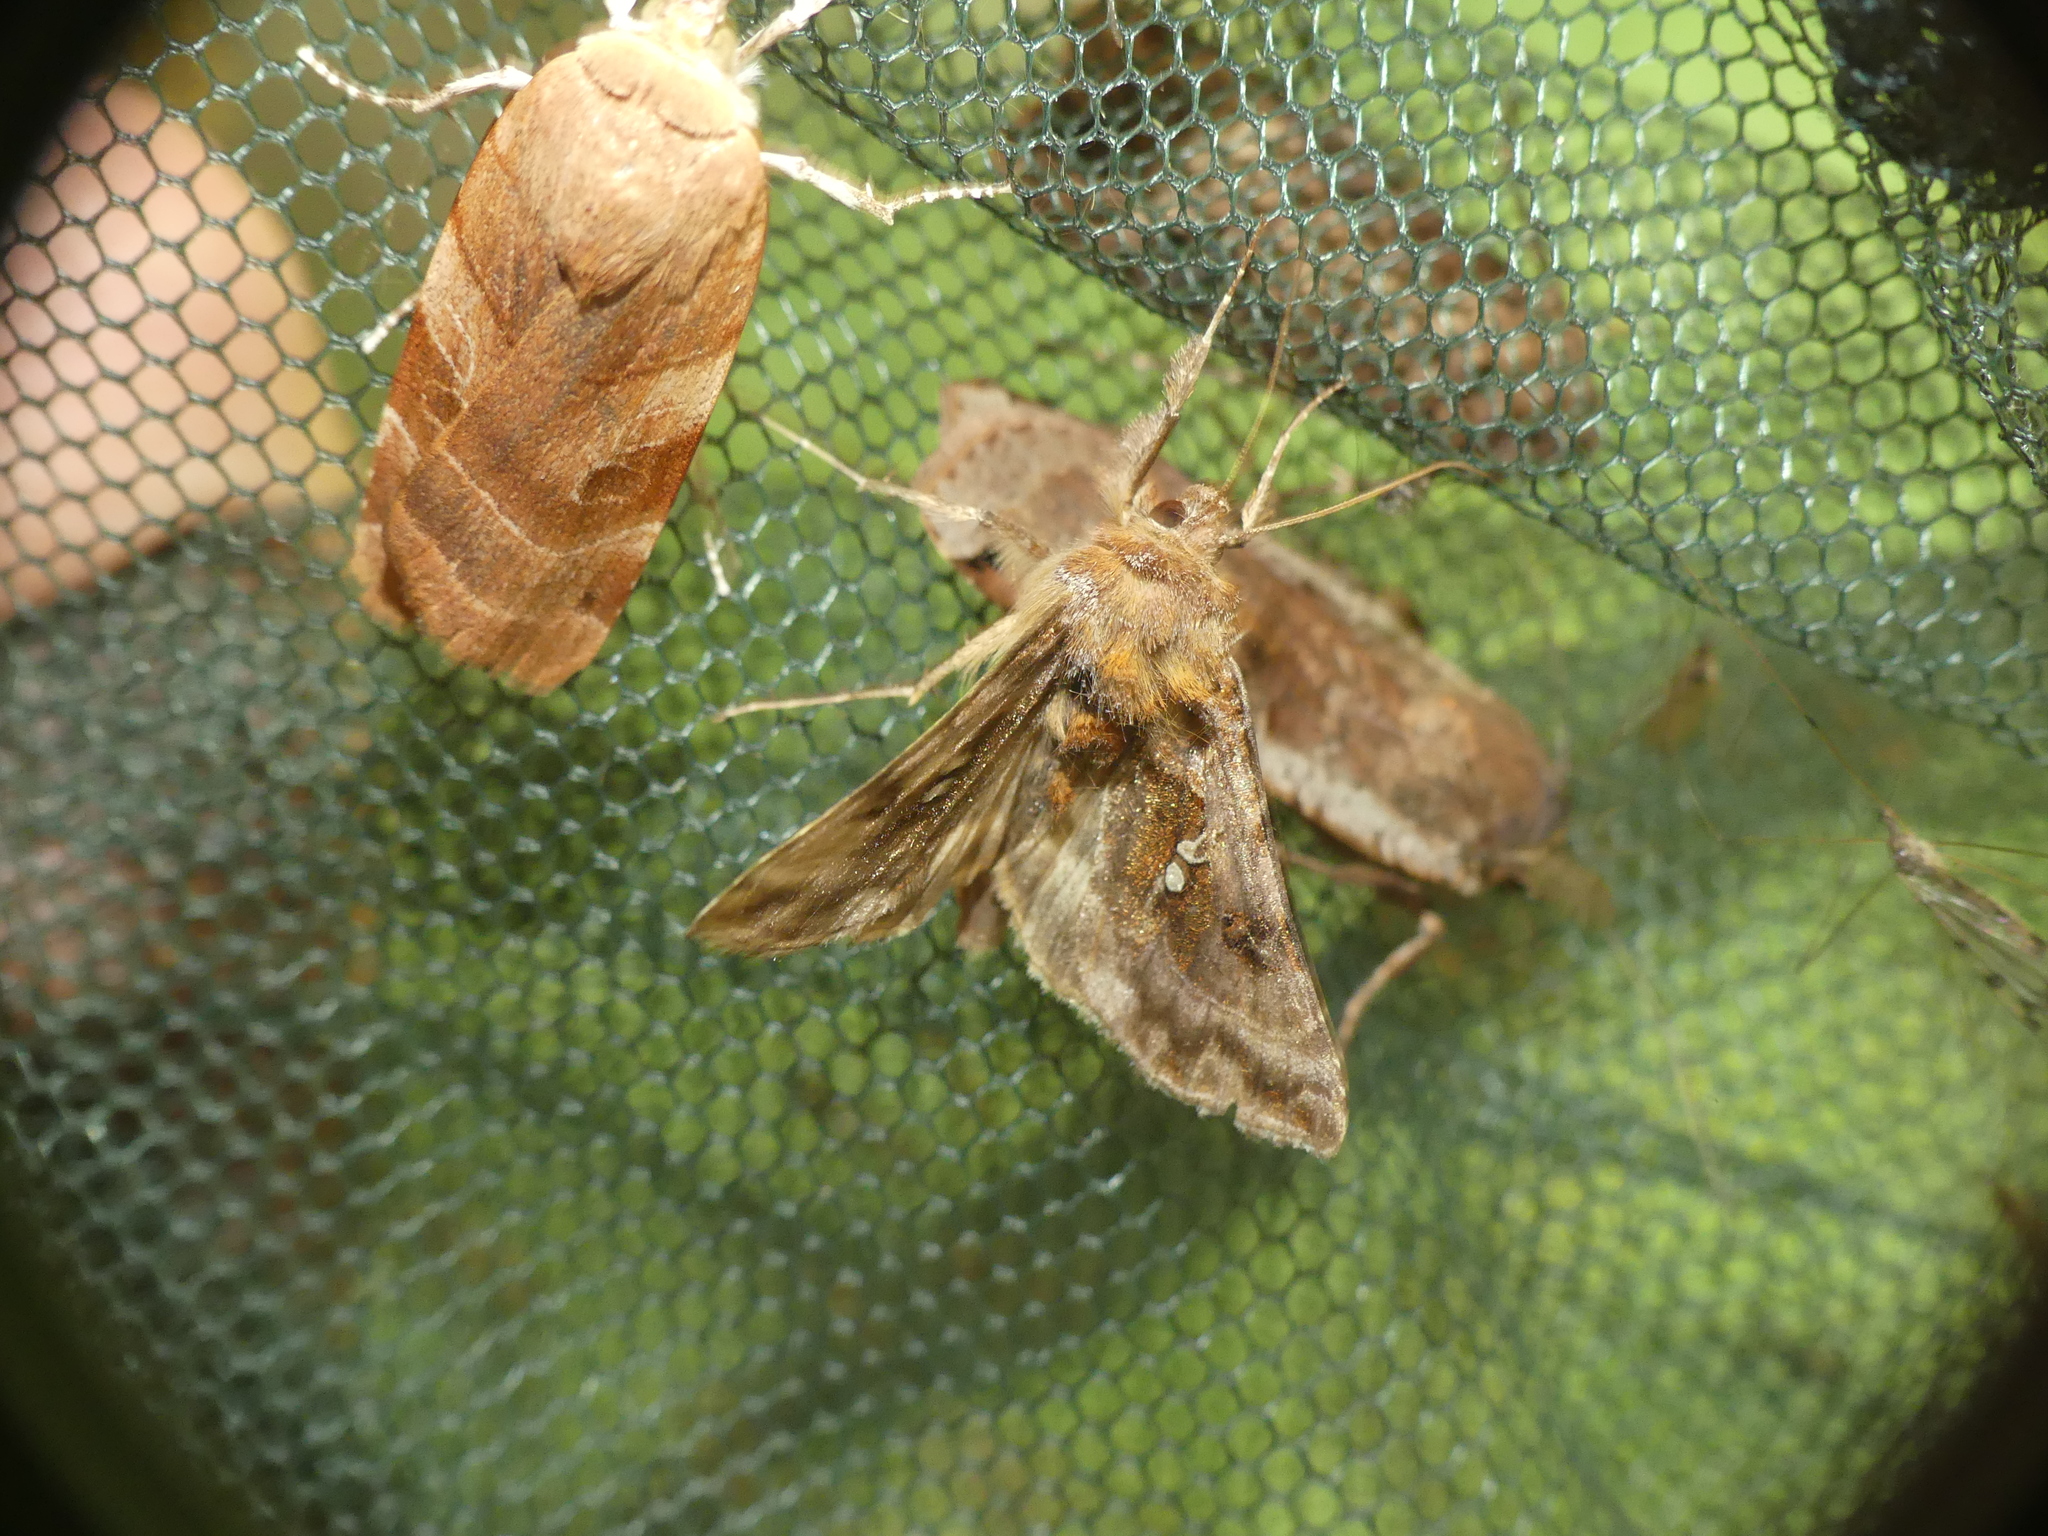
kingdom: Animalia
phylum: Arthropoda
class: Insecta
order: Lepidoptera
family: Noctuidae
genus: Autographa
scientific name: Autographa pulchrina
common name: Beautiful golden y
